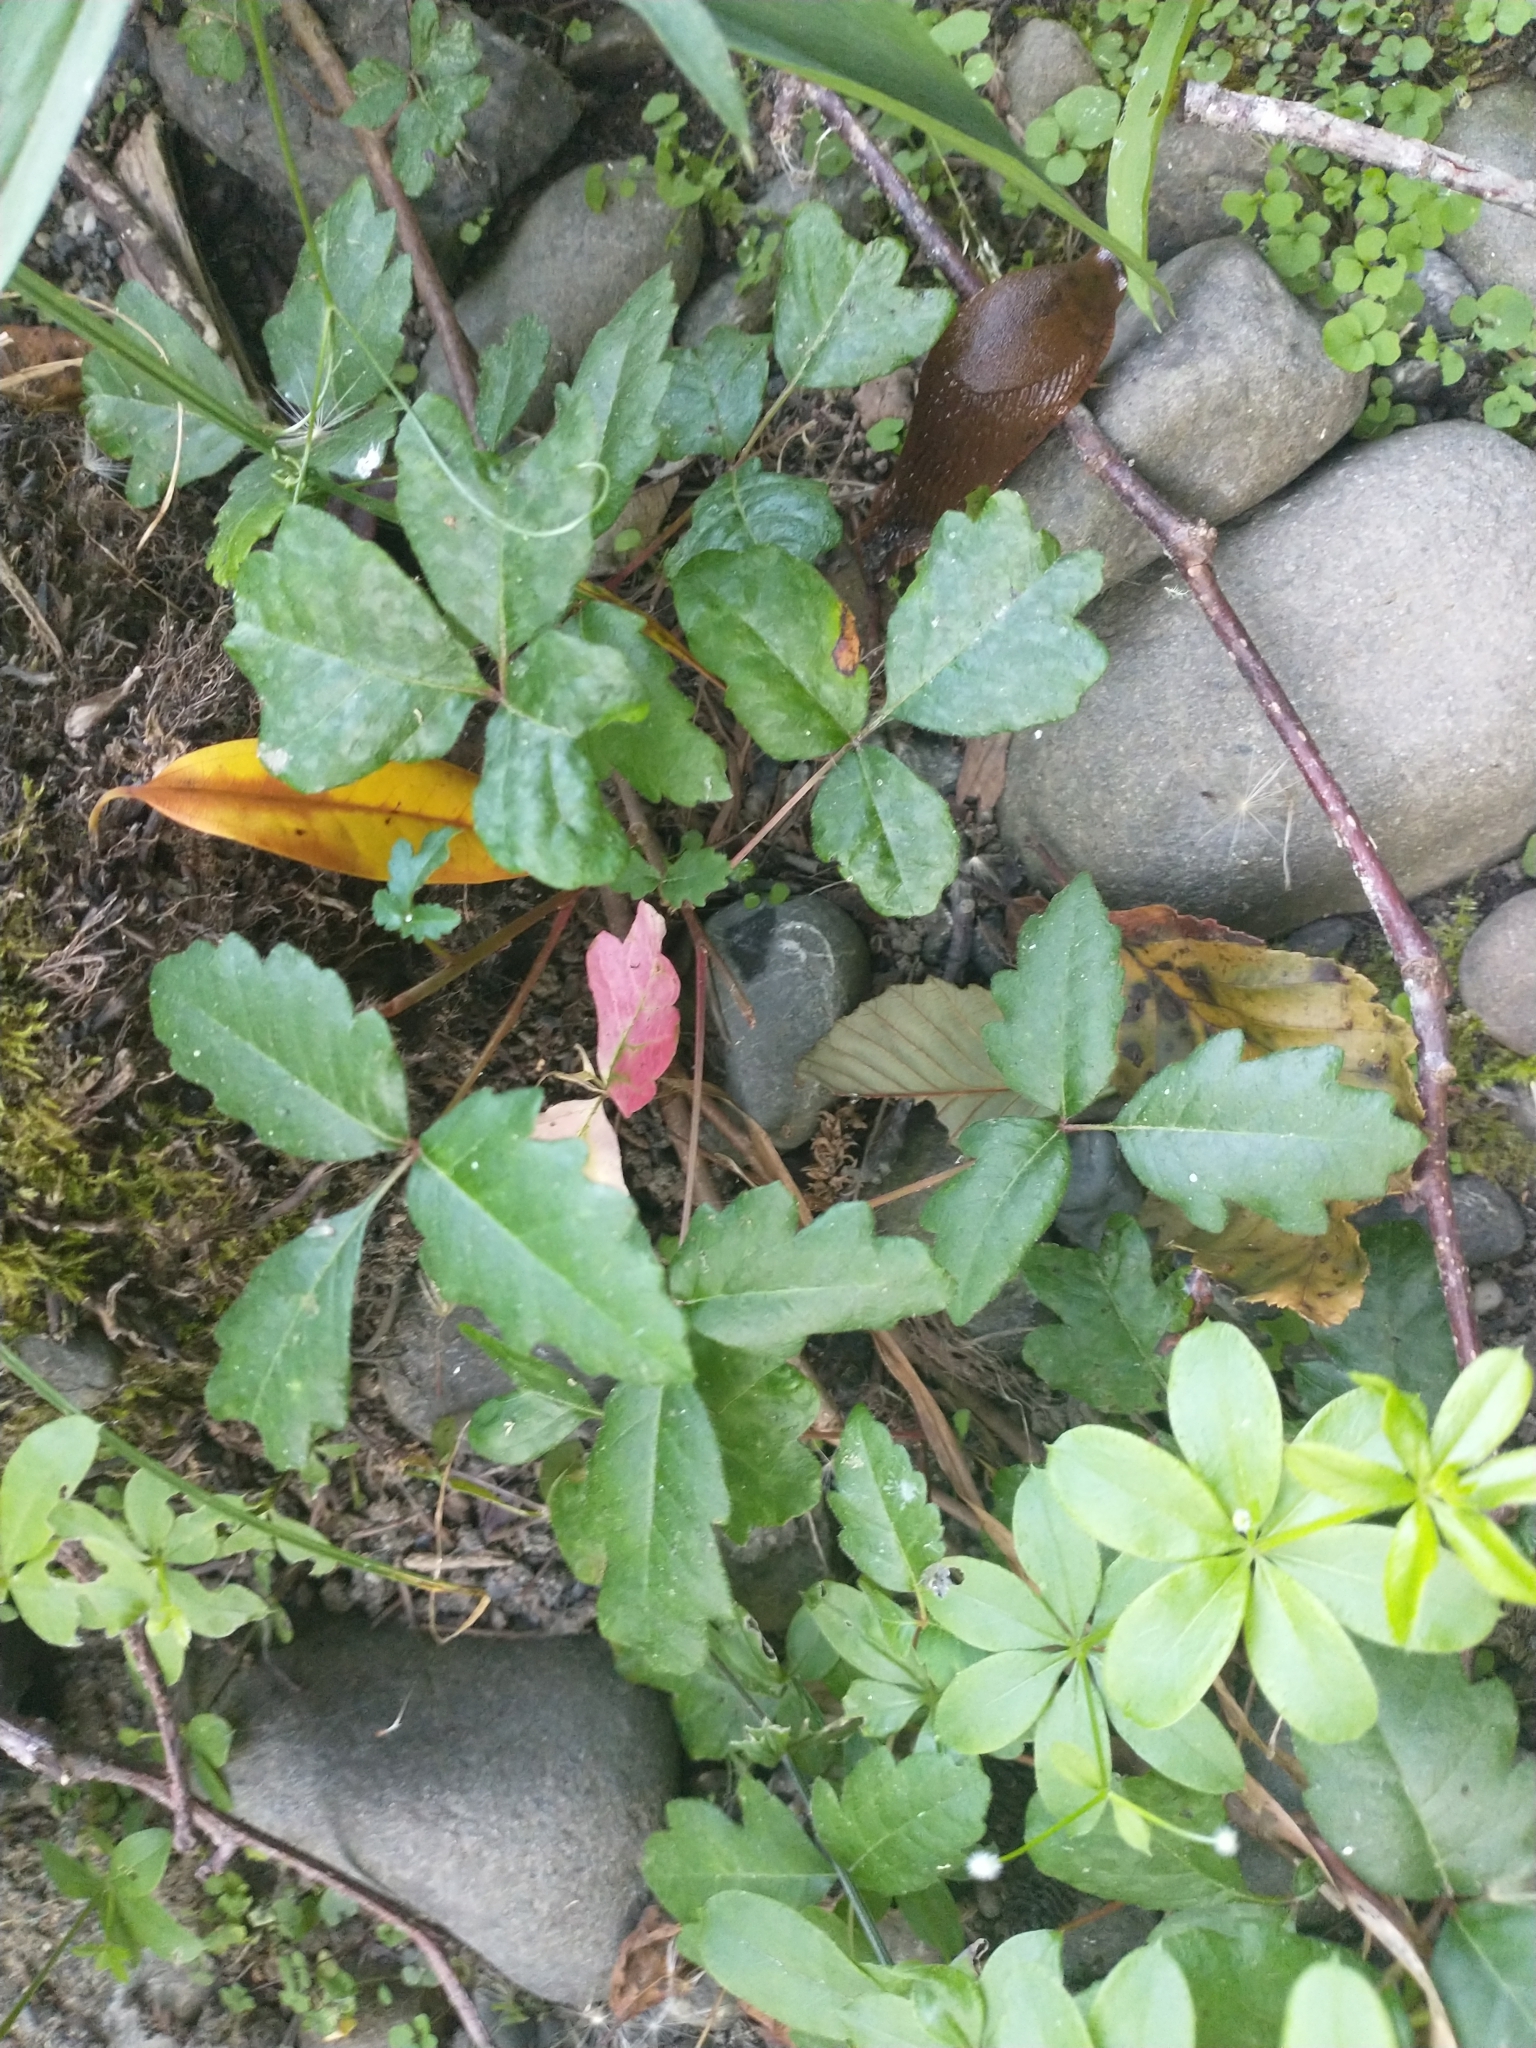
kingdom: Plantae
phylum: Tracheophyta
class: Magnoliopsida
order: Sapindales
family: Anacardiaceae
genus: Toxicodendron
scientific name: Toxicodendron diversilobum
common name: Pacific poison-oak
